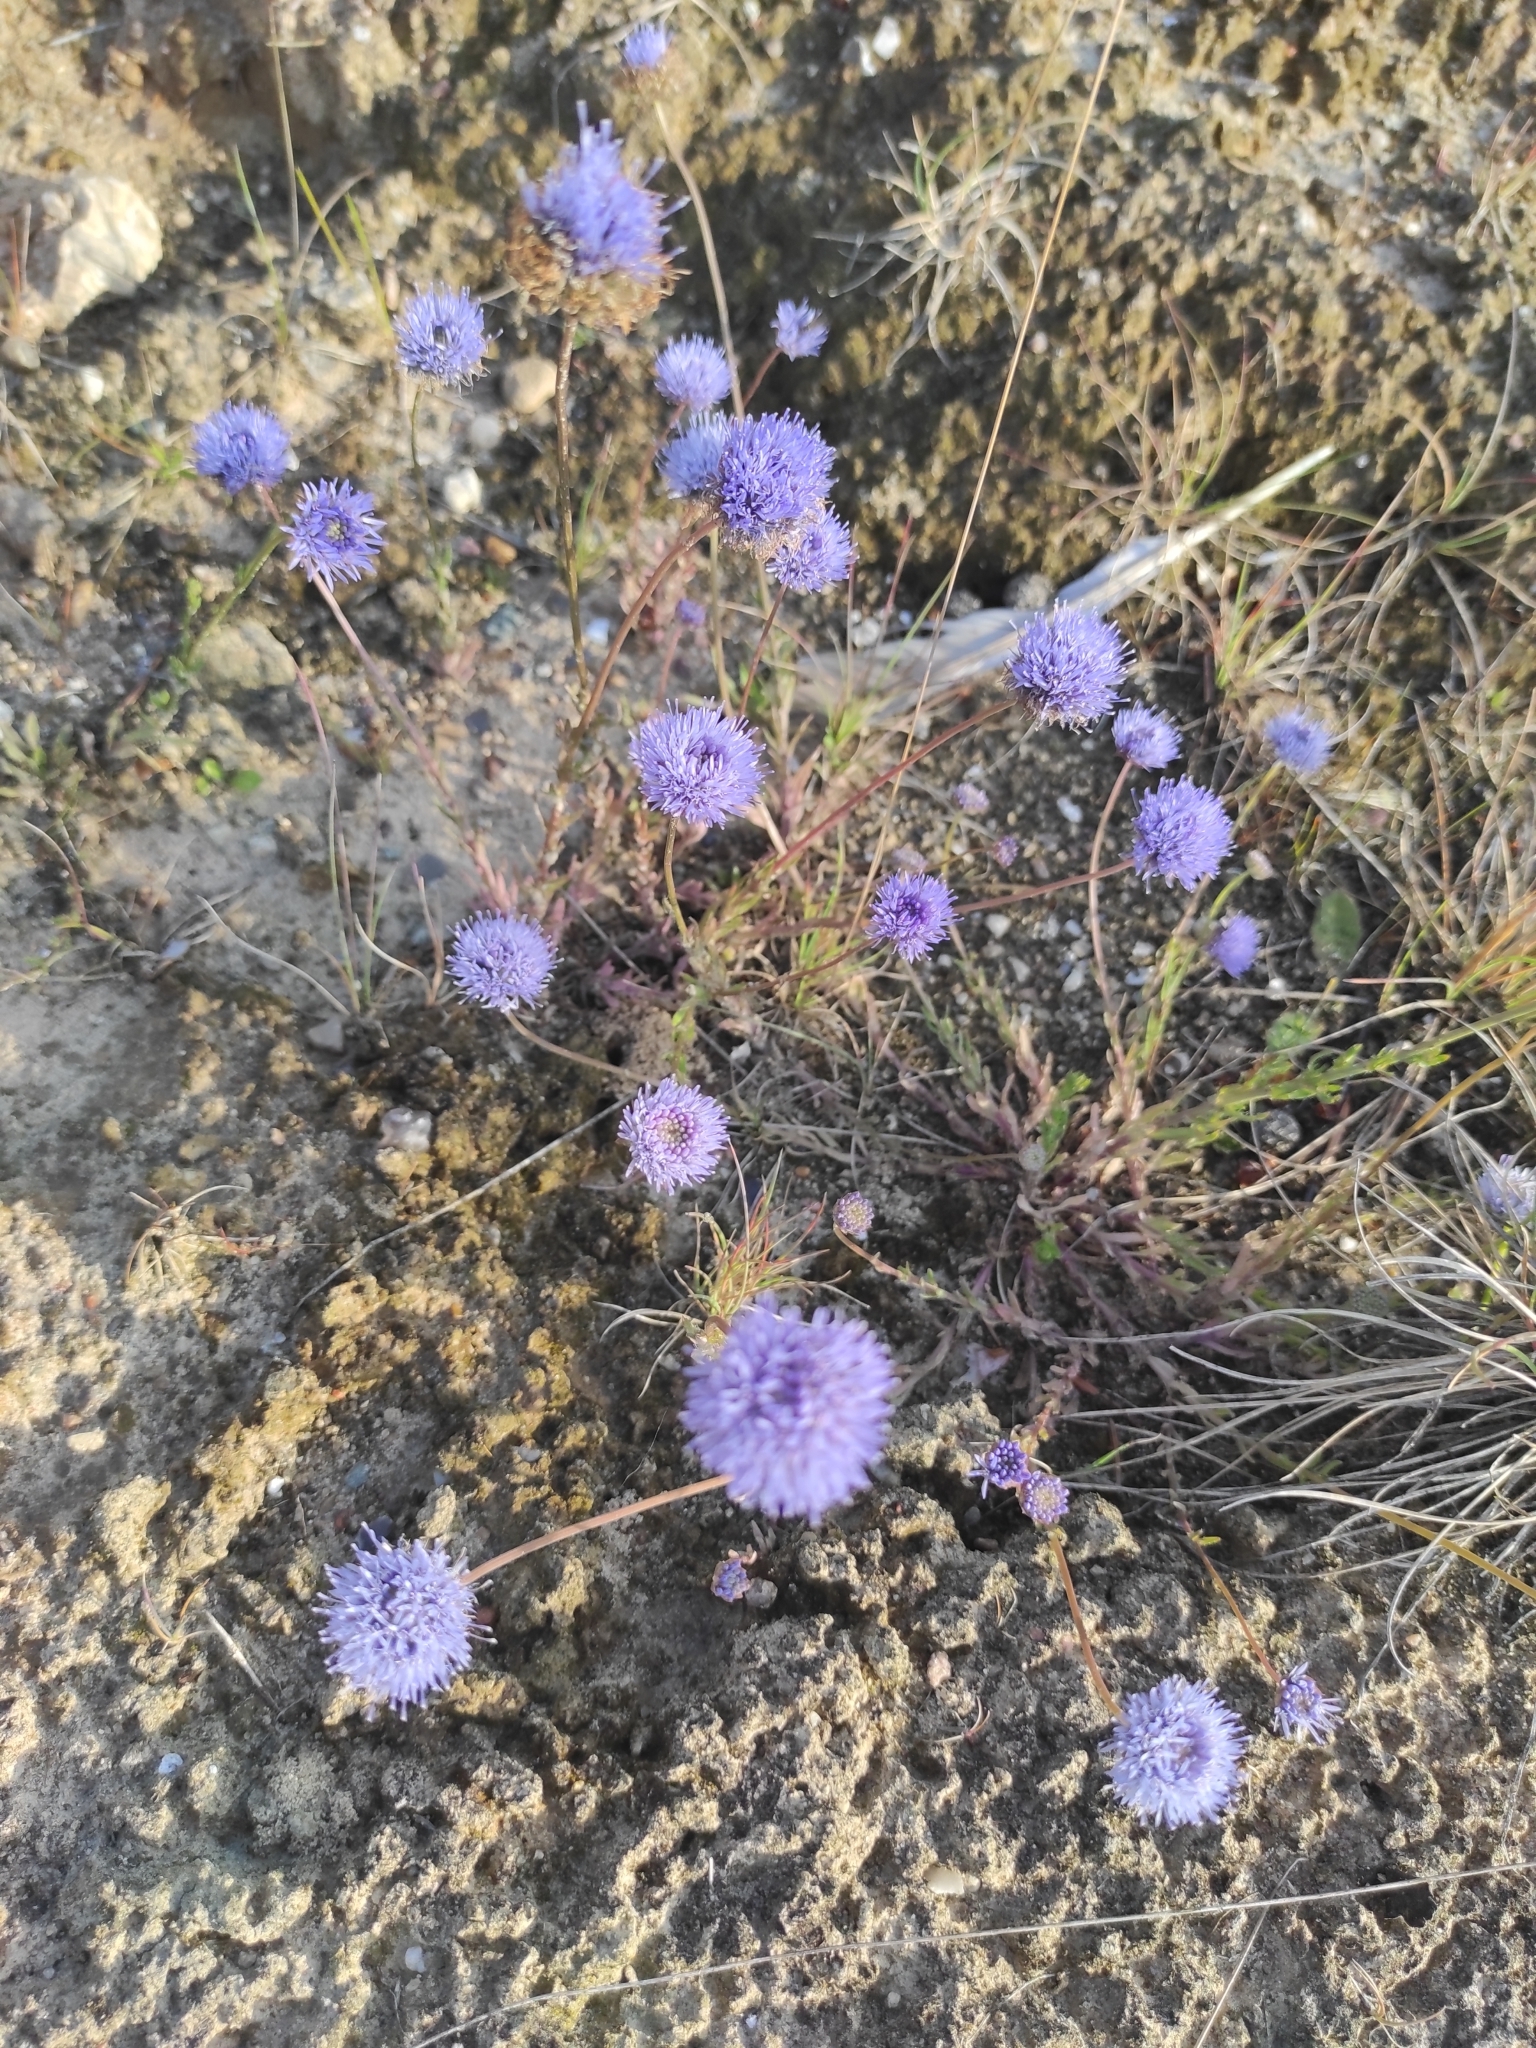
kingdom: Plantae
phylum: Tracheophyta
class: Magnoliopsida
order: Asterales
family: Campanulaceae
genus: Jasione
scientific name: Jasione montana
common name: Sheep's-bit
